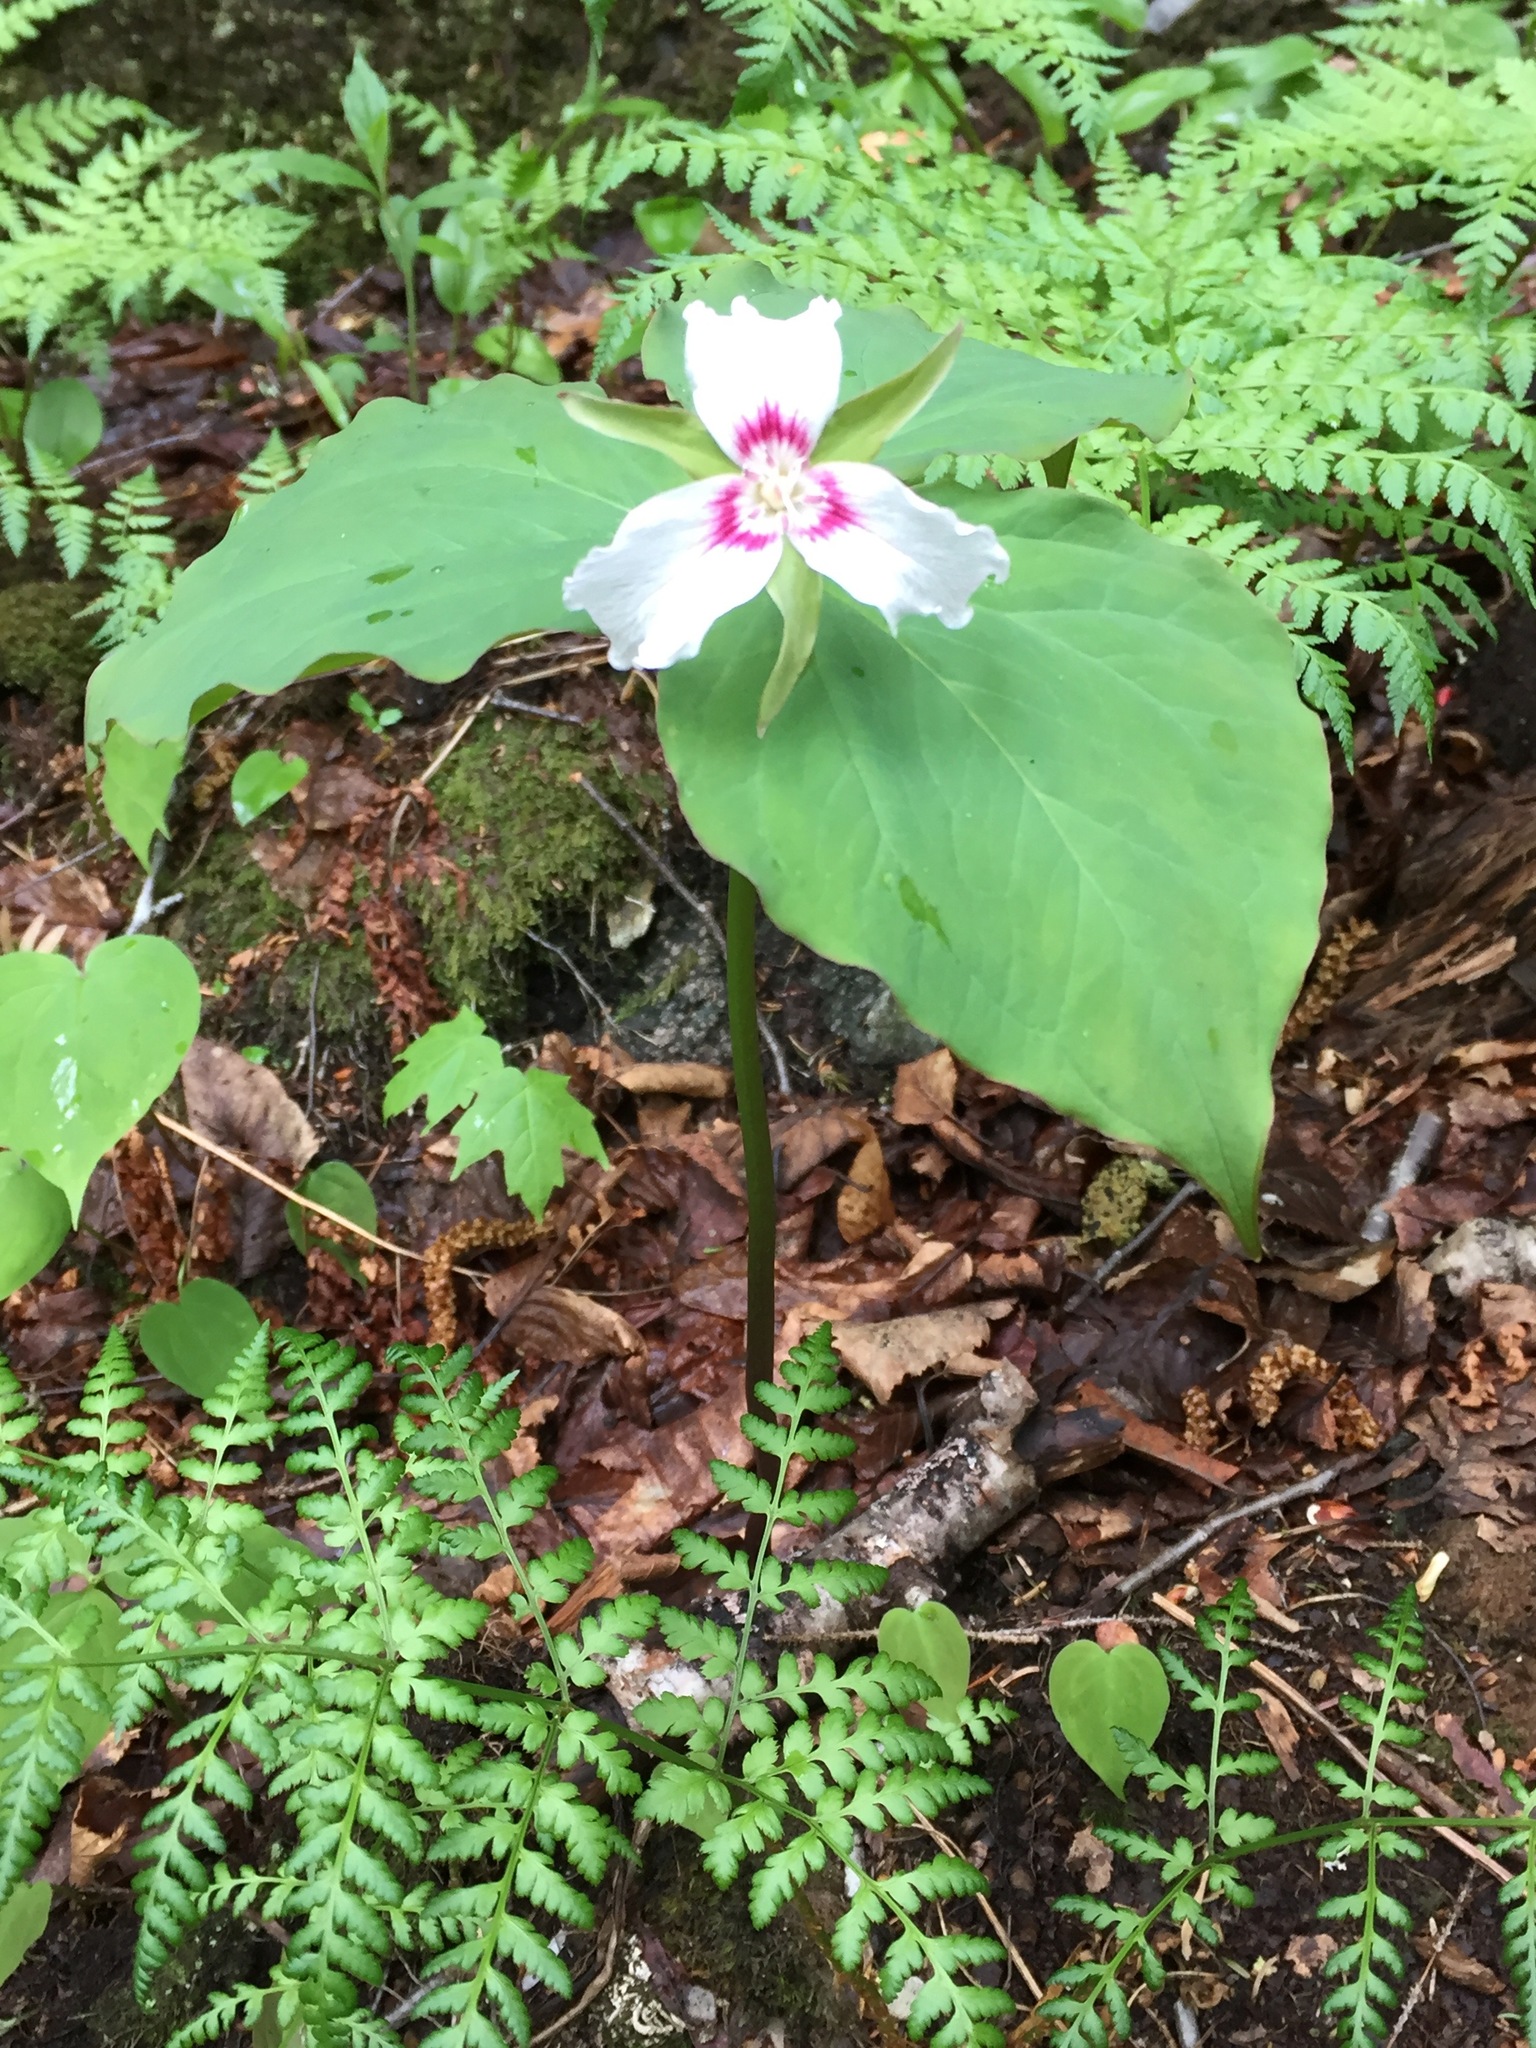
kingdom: Plantae
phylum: Tracheophyta
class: Liliopsida
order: Liliales
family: Melanthiaceae
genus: Trillium
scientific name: Trillium undulatum
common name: Paint trillium
